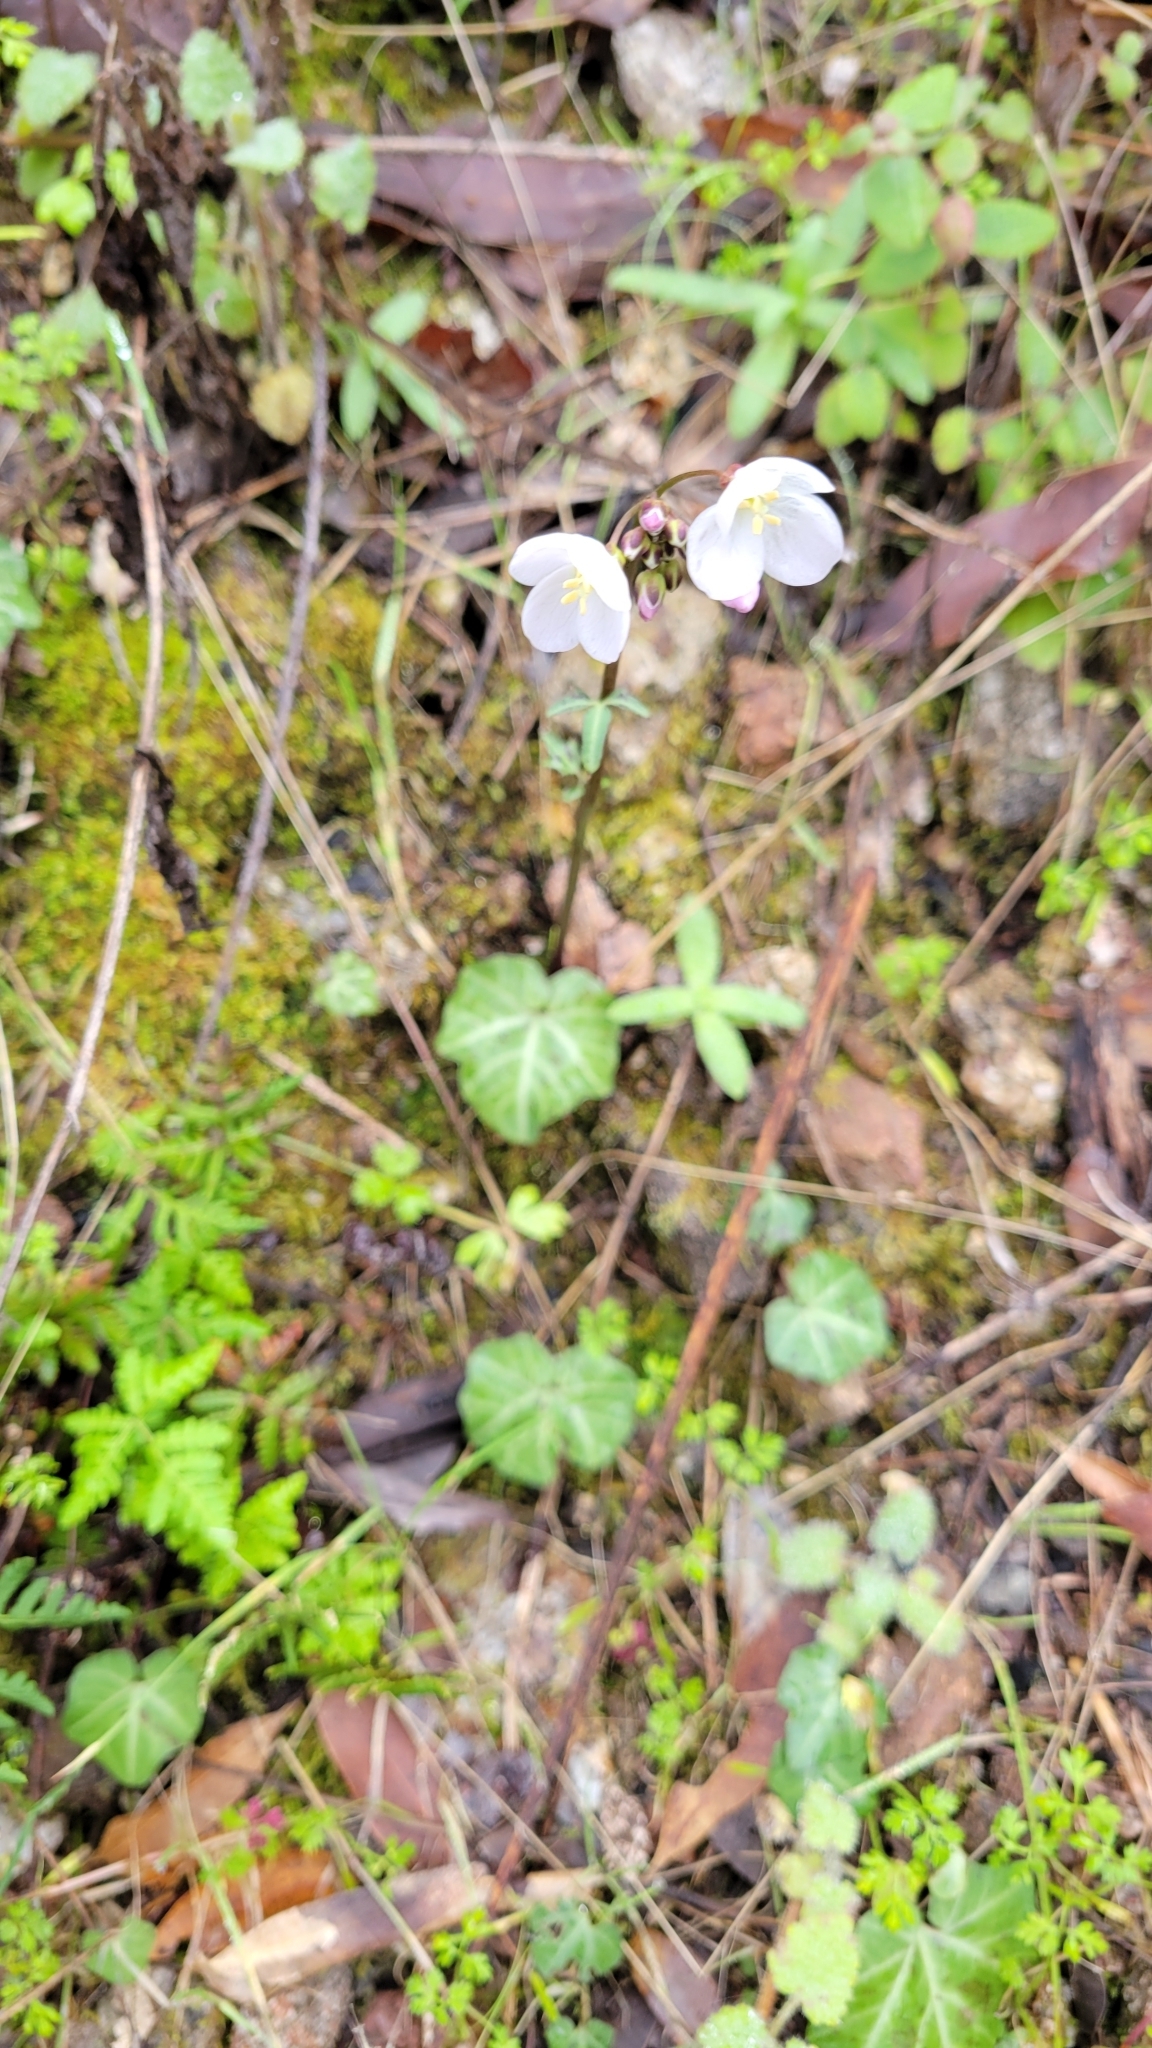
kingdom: Plantae
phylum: Tracheophyta
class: Magnoliopsida
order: Brassicales
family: Brassicaceae
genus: Cardamine
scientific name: Cardamine californica
